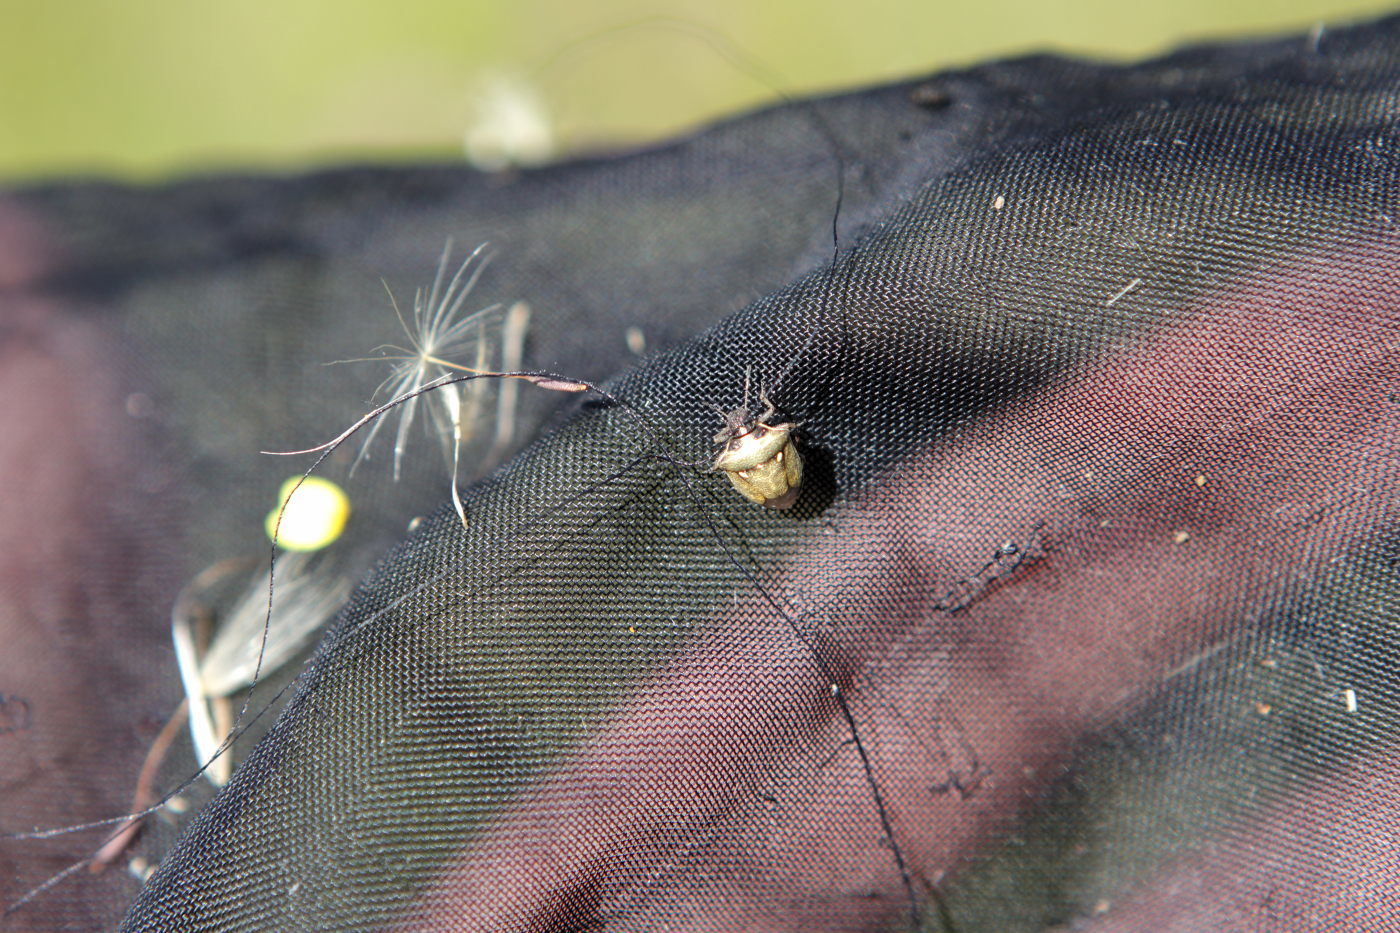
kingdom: Animalia
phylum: Arthropoda
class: Insecta
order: Hemiptera
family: Pentatomidae
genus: Eysarcoris
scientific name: Eysarcoris aeneus
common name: New forest shieldbug
